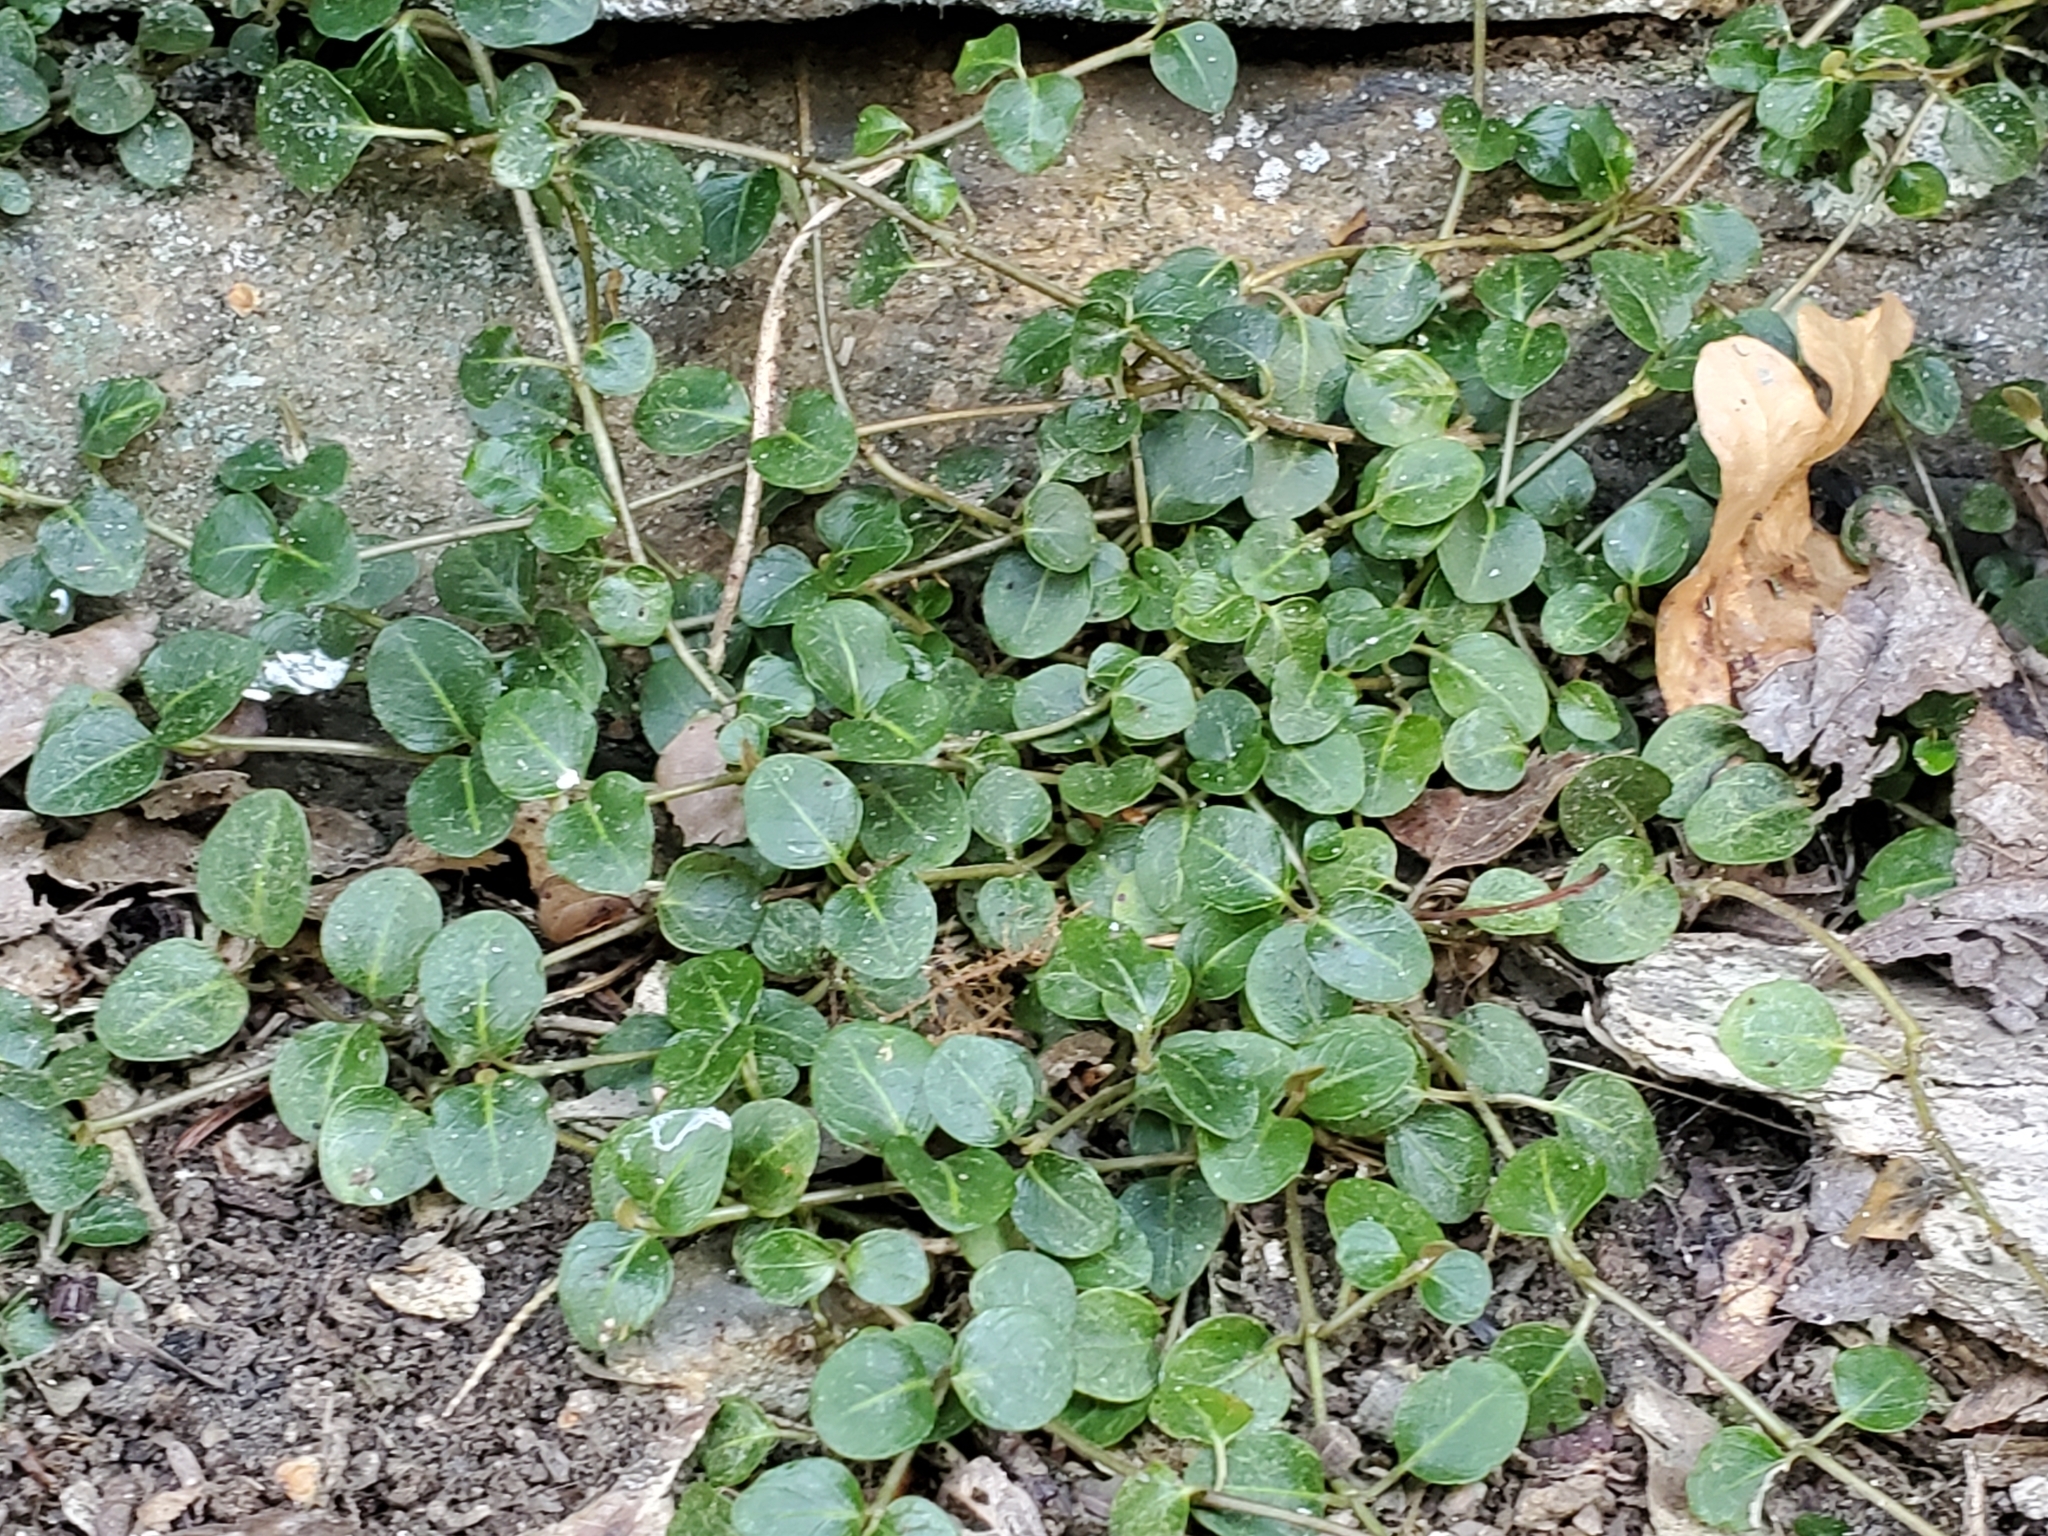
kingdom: Plantae
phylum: Tracheophyta
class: Magnoliopsida
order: Gentianales
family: Rubiaceae
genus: Mitchella
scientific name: Mitchella repens
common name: Partridge-berry
